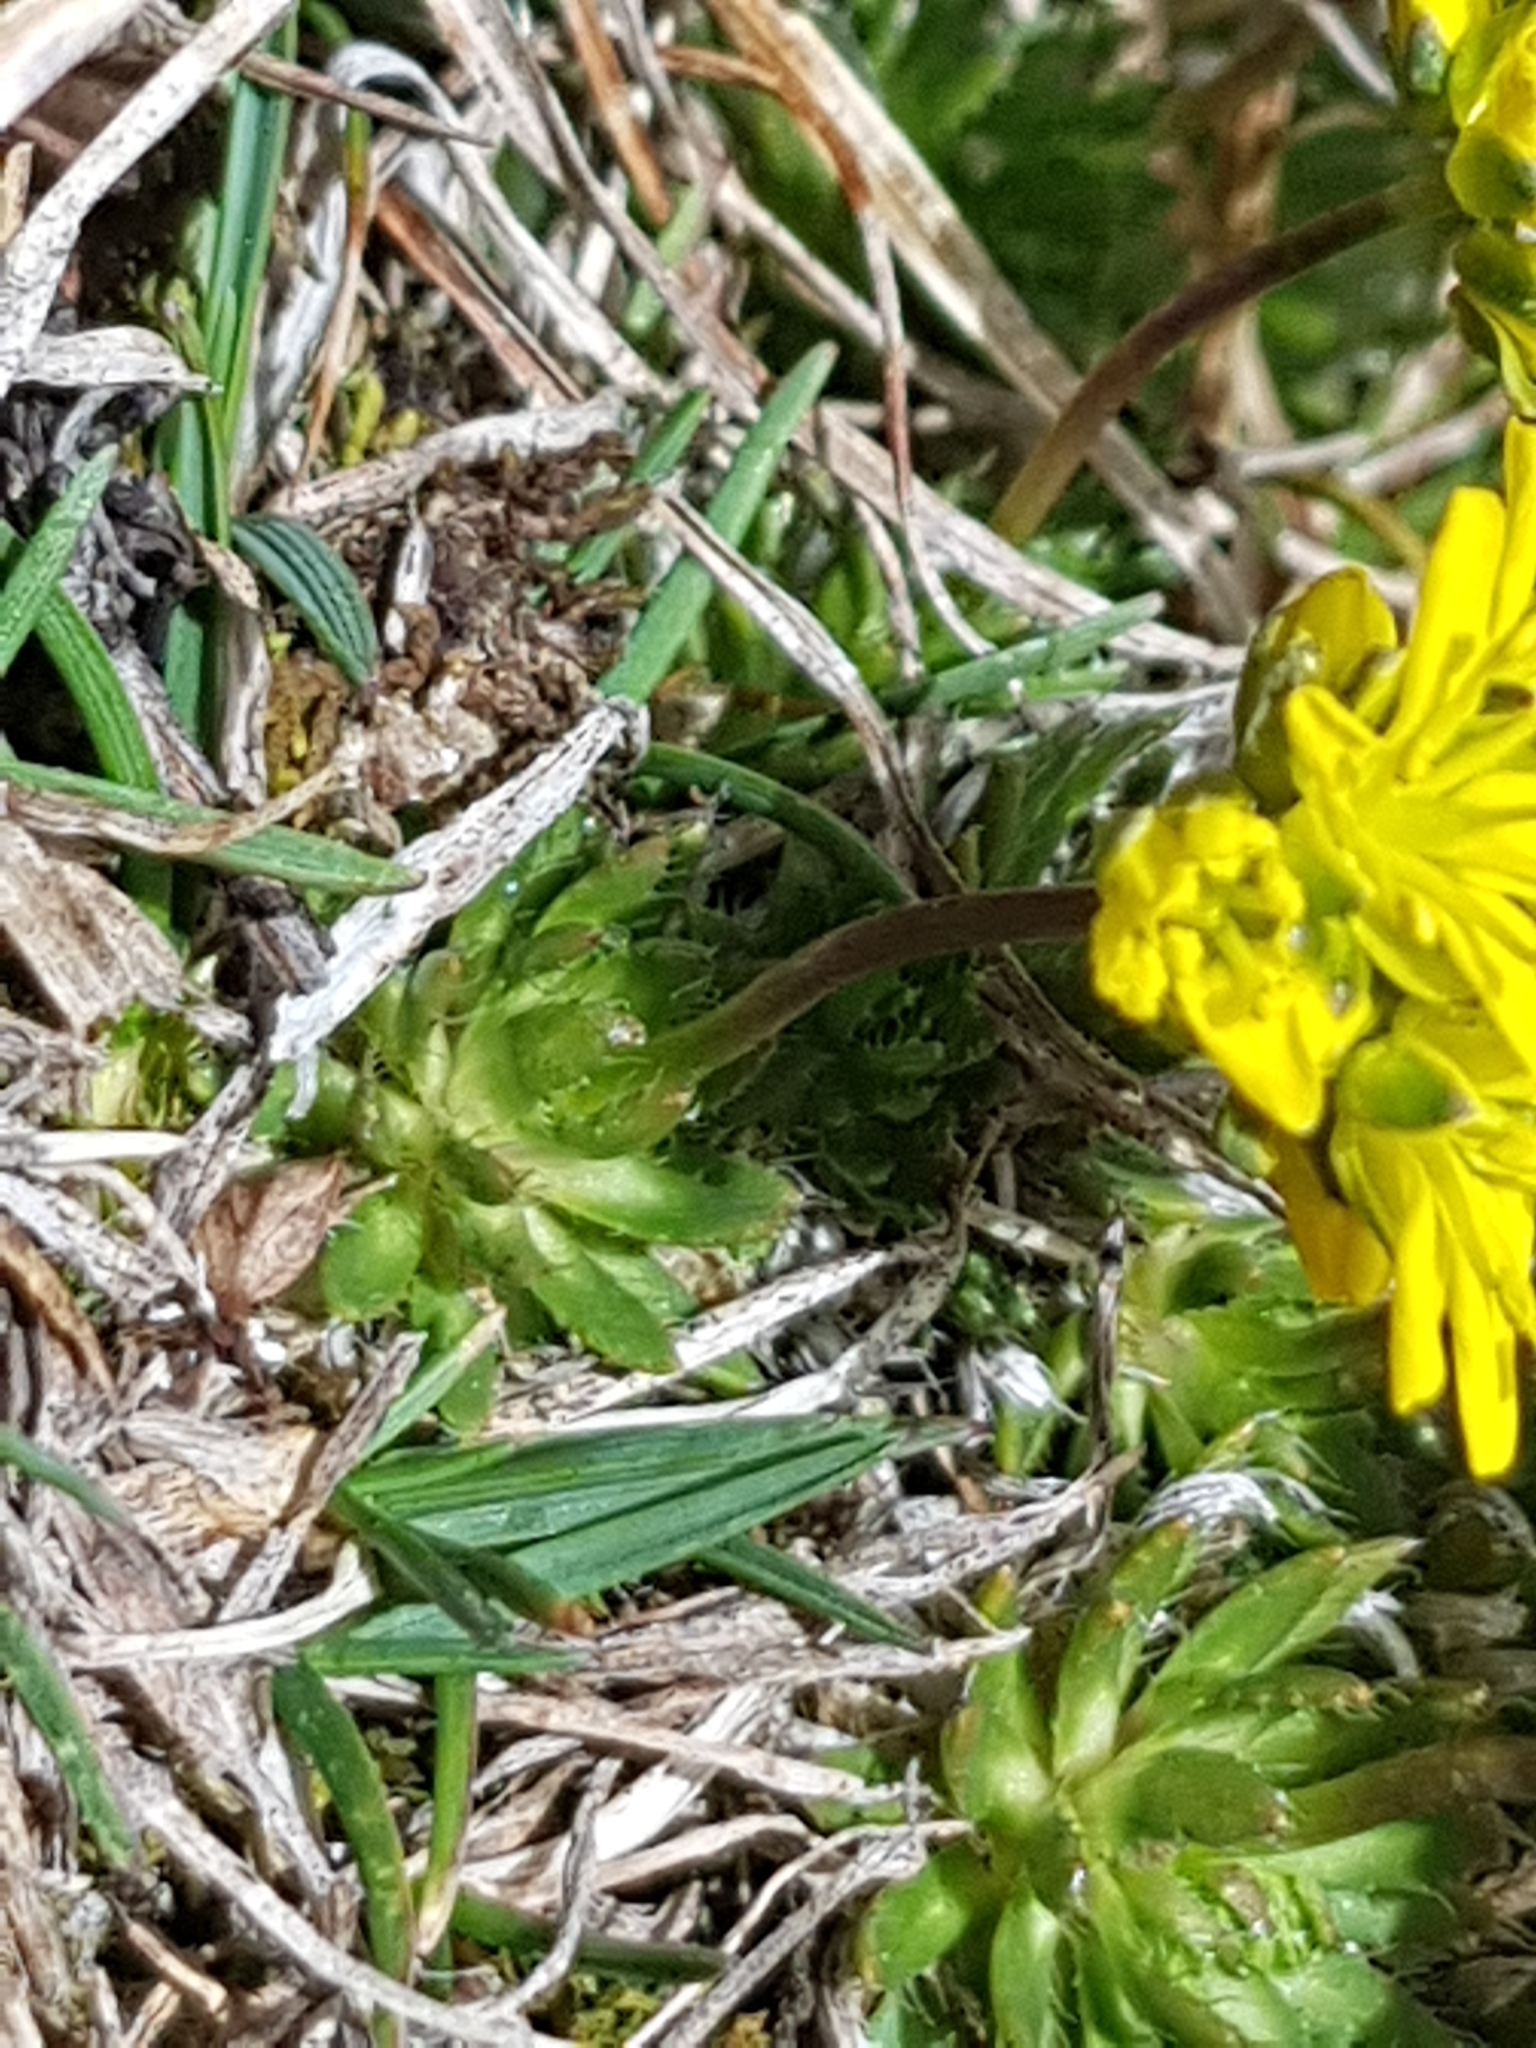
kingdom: Plantae
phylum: Tracheophyta
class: Magnoliopsida
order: Brassicales
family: Brassicaceae
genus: Draba
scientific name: Draba aizoides
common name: Yellow whitlowgrass
